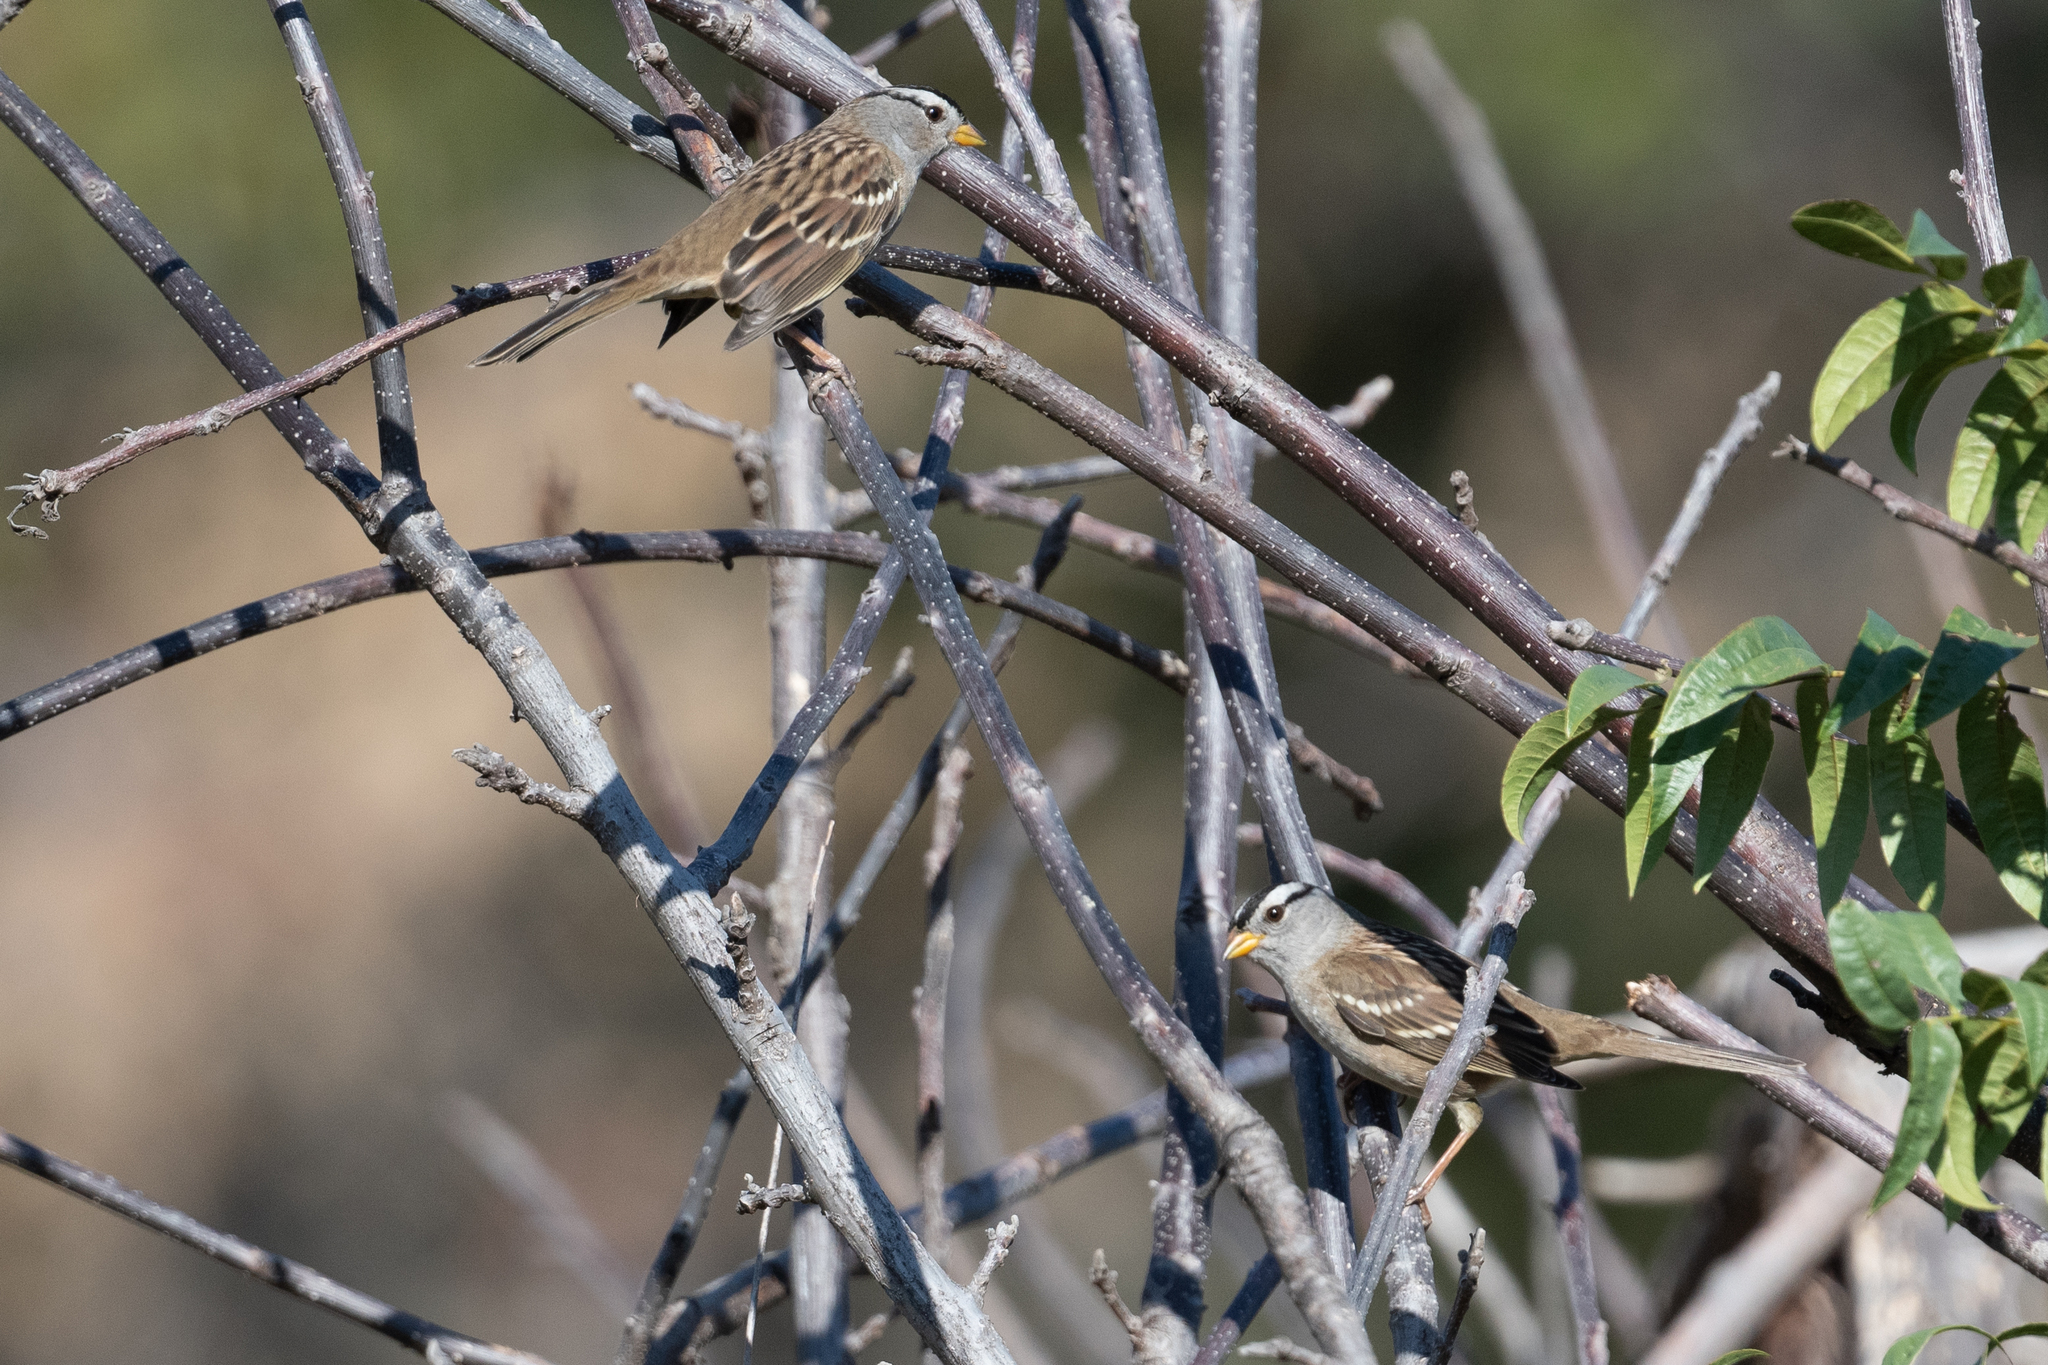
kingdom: Animalia
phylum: Chordata
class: Aves
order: Passeriformes
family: Passerellidae
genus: Zonotrichia
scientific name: Zonotrichia leucophrys
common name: White-crowned sparrow
